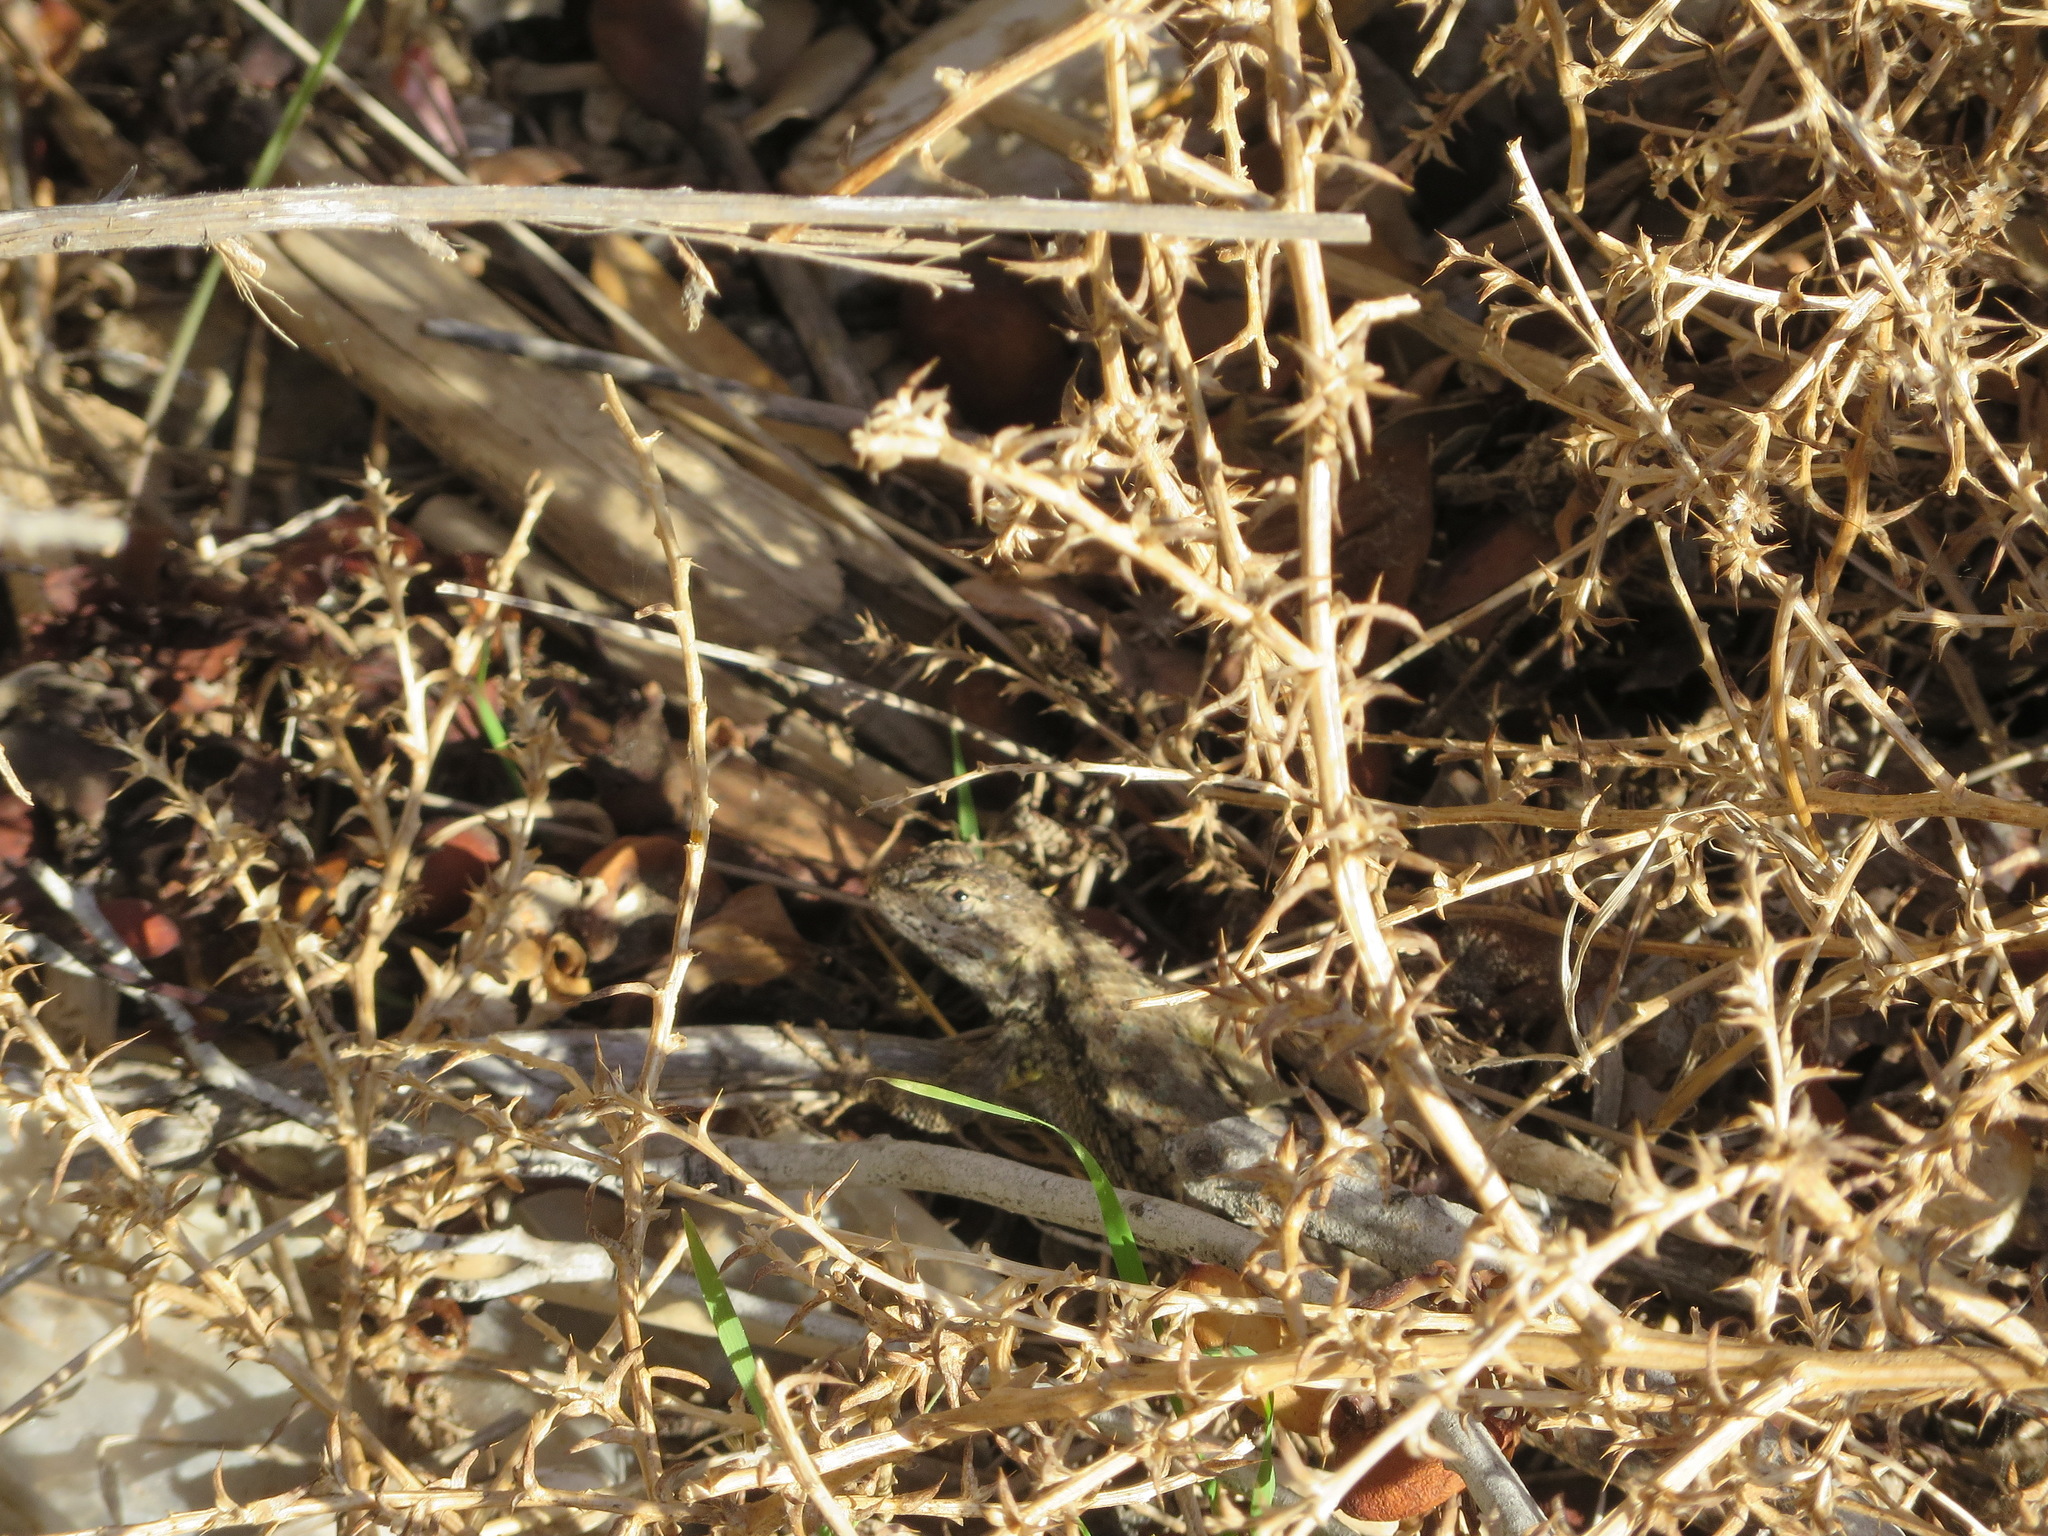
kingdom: Animalia
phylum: Chordata
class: Squamata
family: Phrynosomatidae
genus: Sceloporus
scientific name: Sceloporus occidentalis
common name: Western fence lizard
